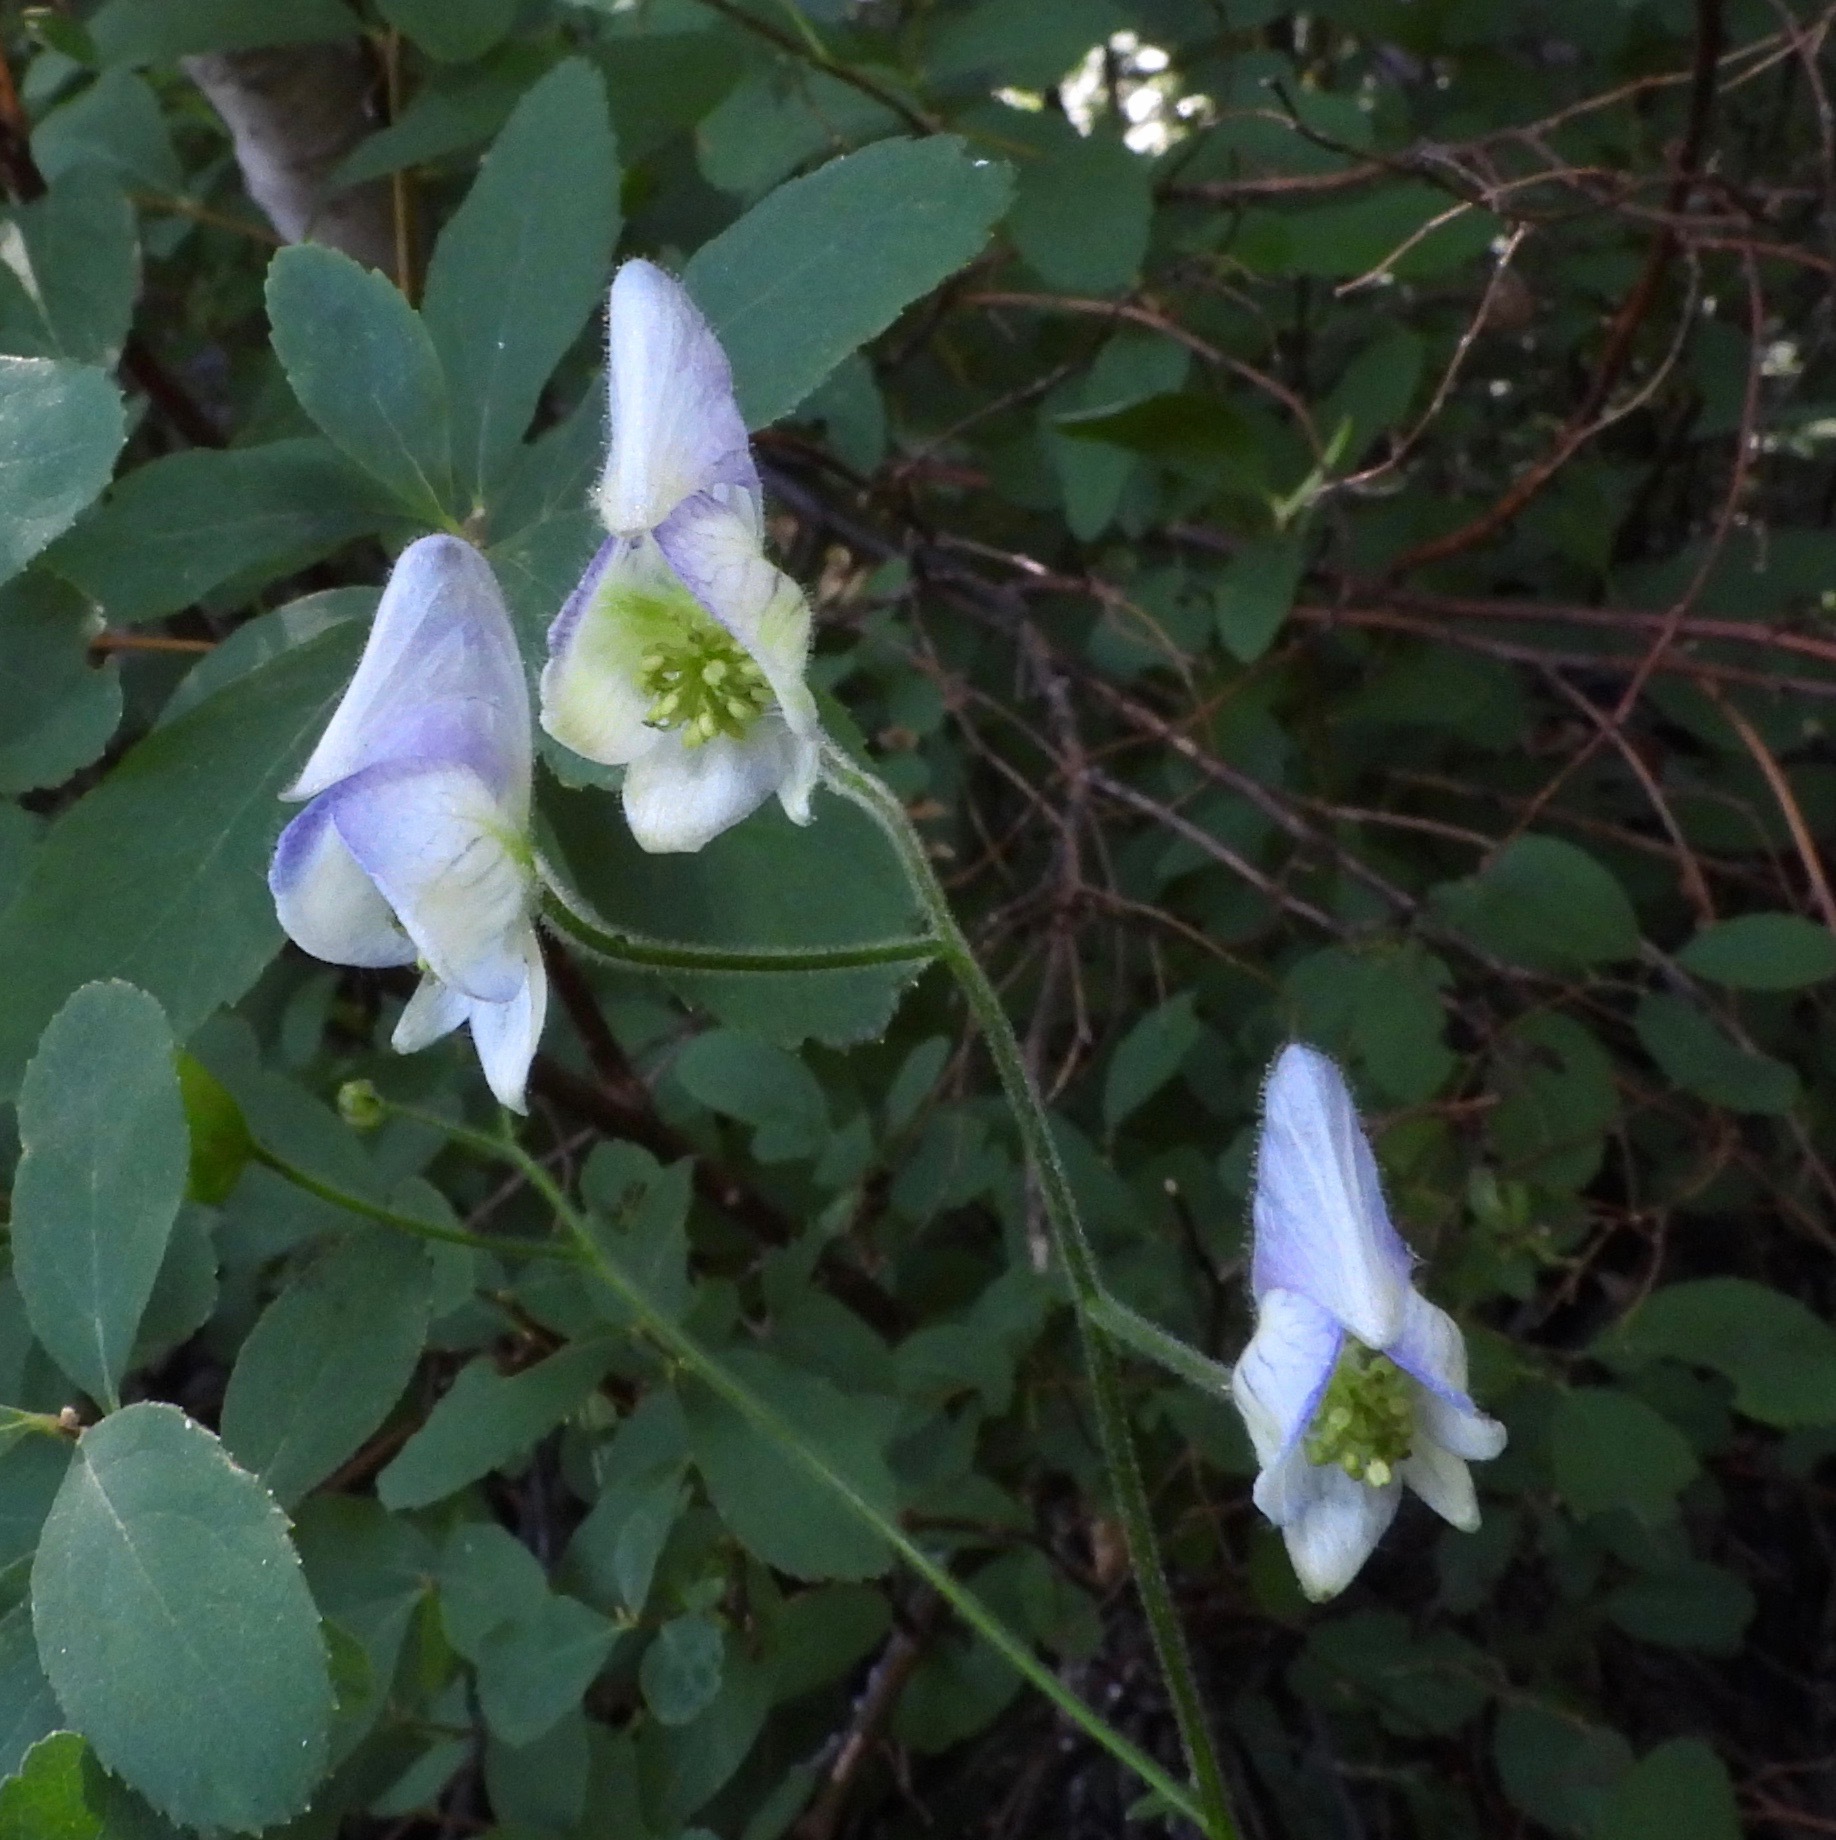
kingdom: Plantae
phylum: Tracheophyta
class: Magnoliopsida
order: Ranunculales
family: Ranunculaceae
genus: Aconitum
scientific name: Aconitum columbianum
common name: Columbia aconite
